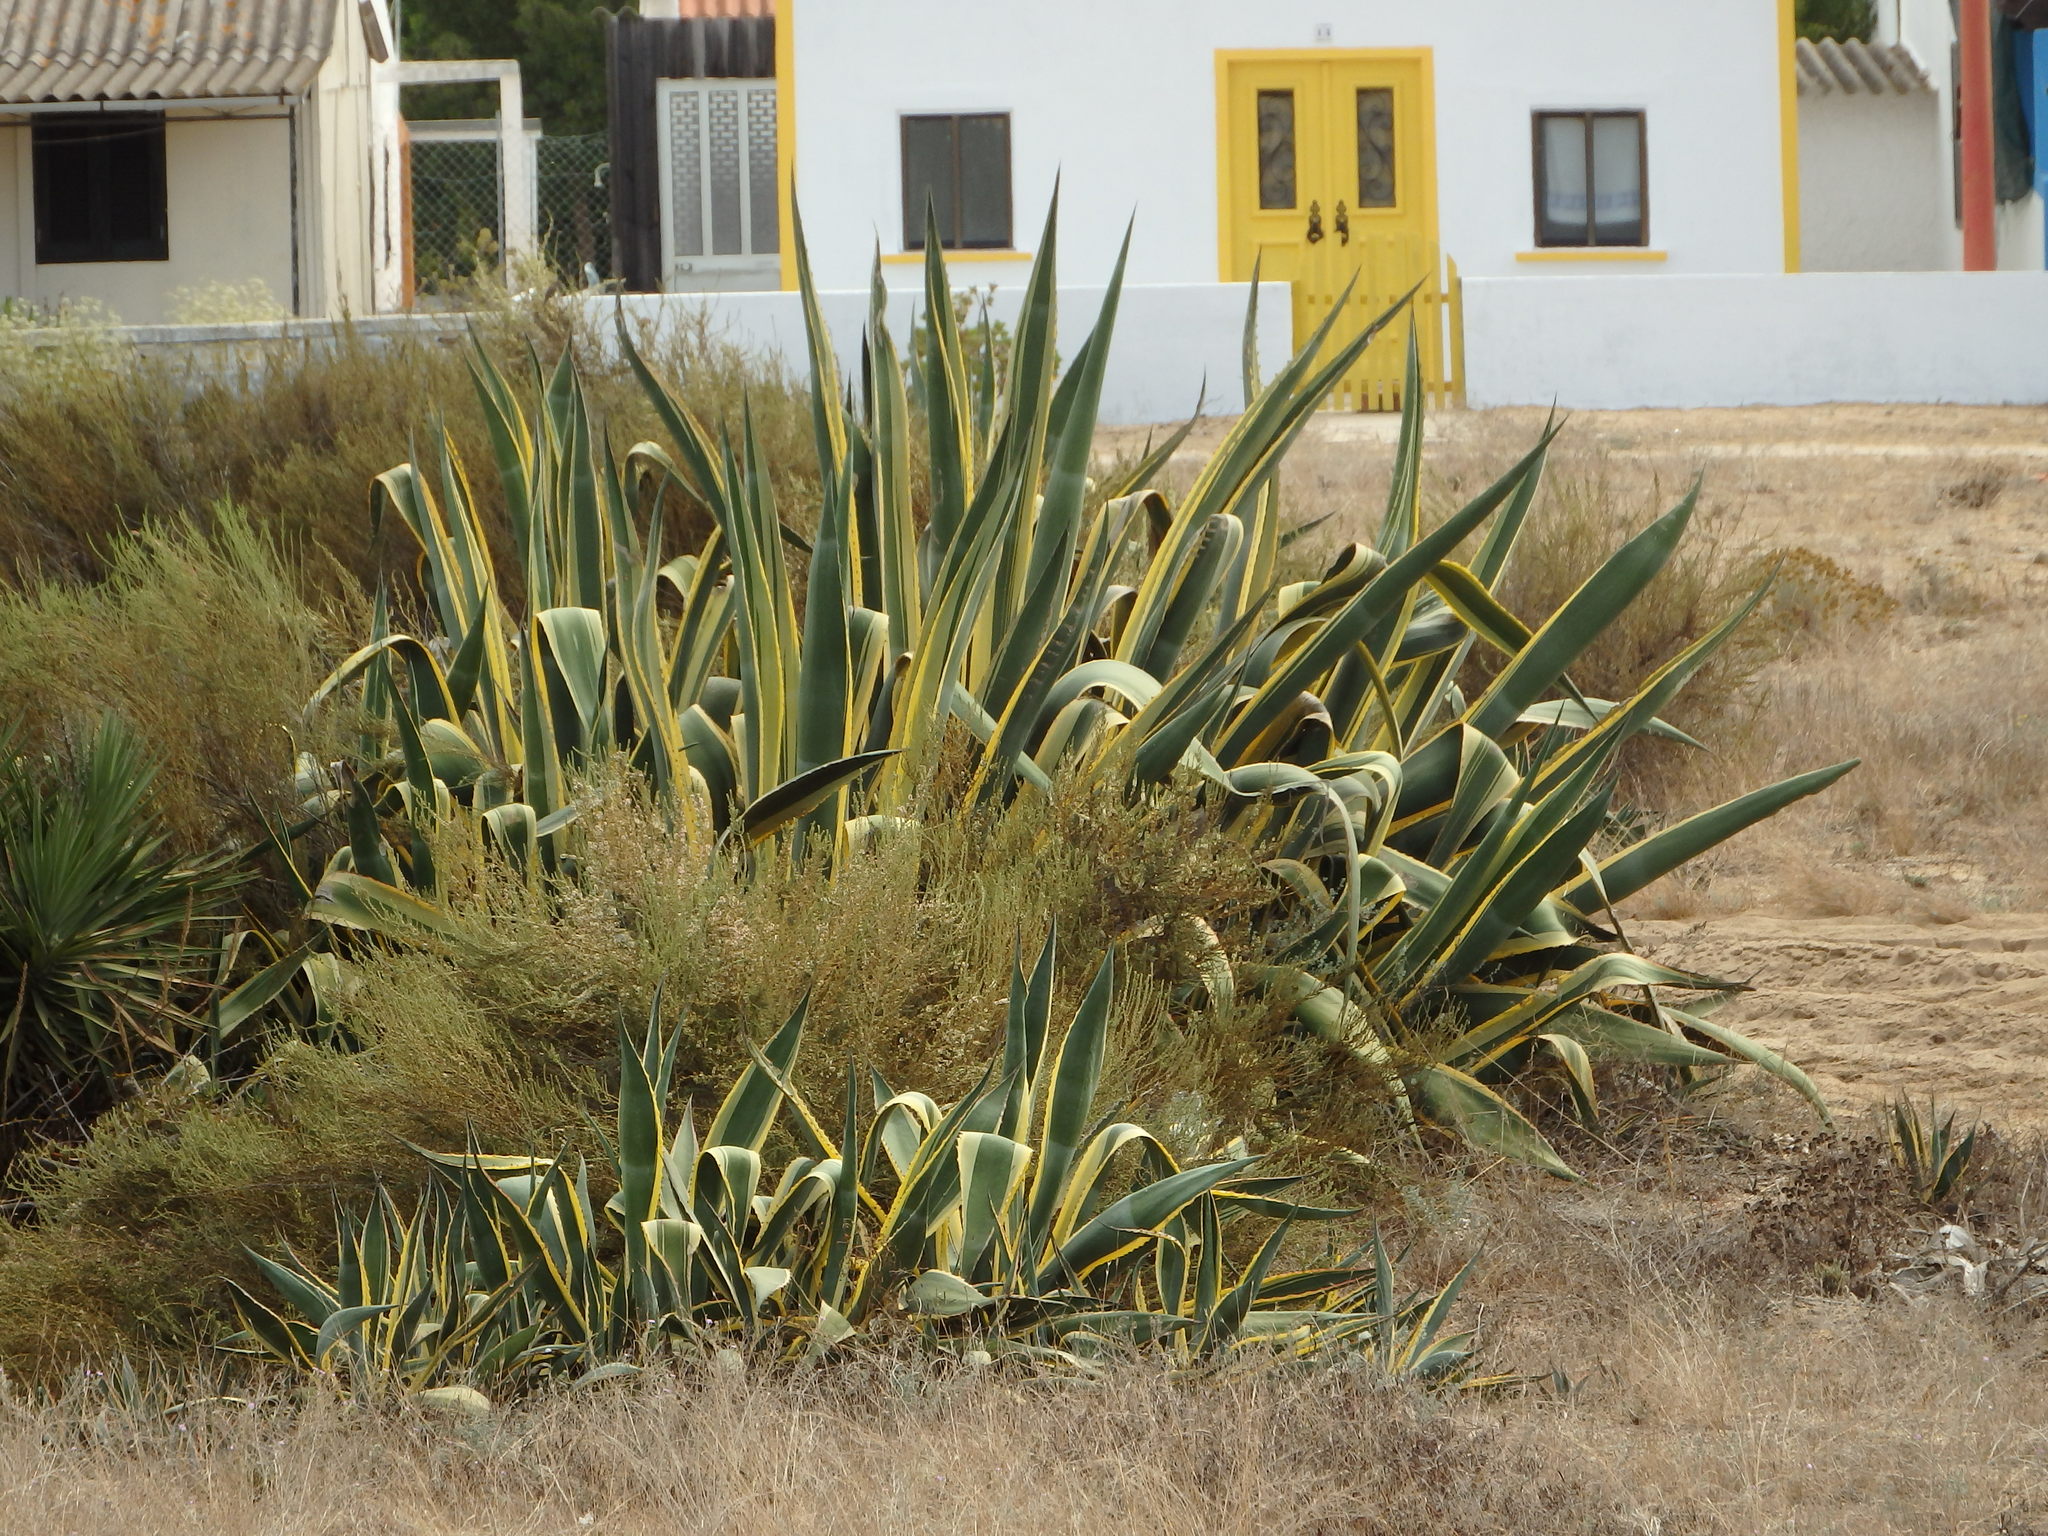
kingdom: Plantae
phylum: Tracheophyta
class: Liliopsida
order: Asparagales
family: Asparagaceae
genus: Agave
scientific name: Agave americana
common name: Centuryplant
